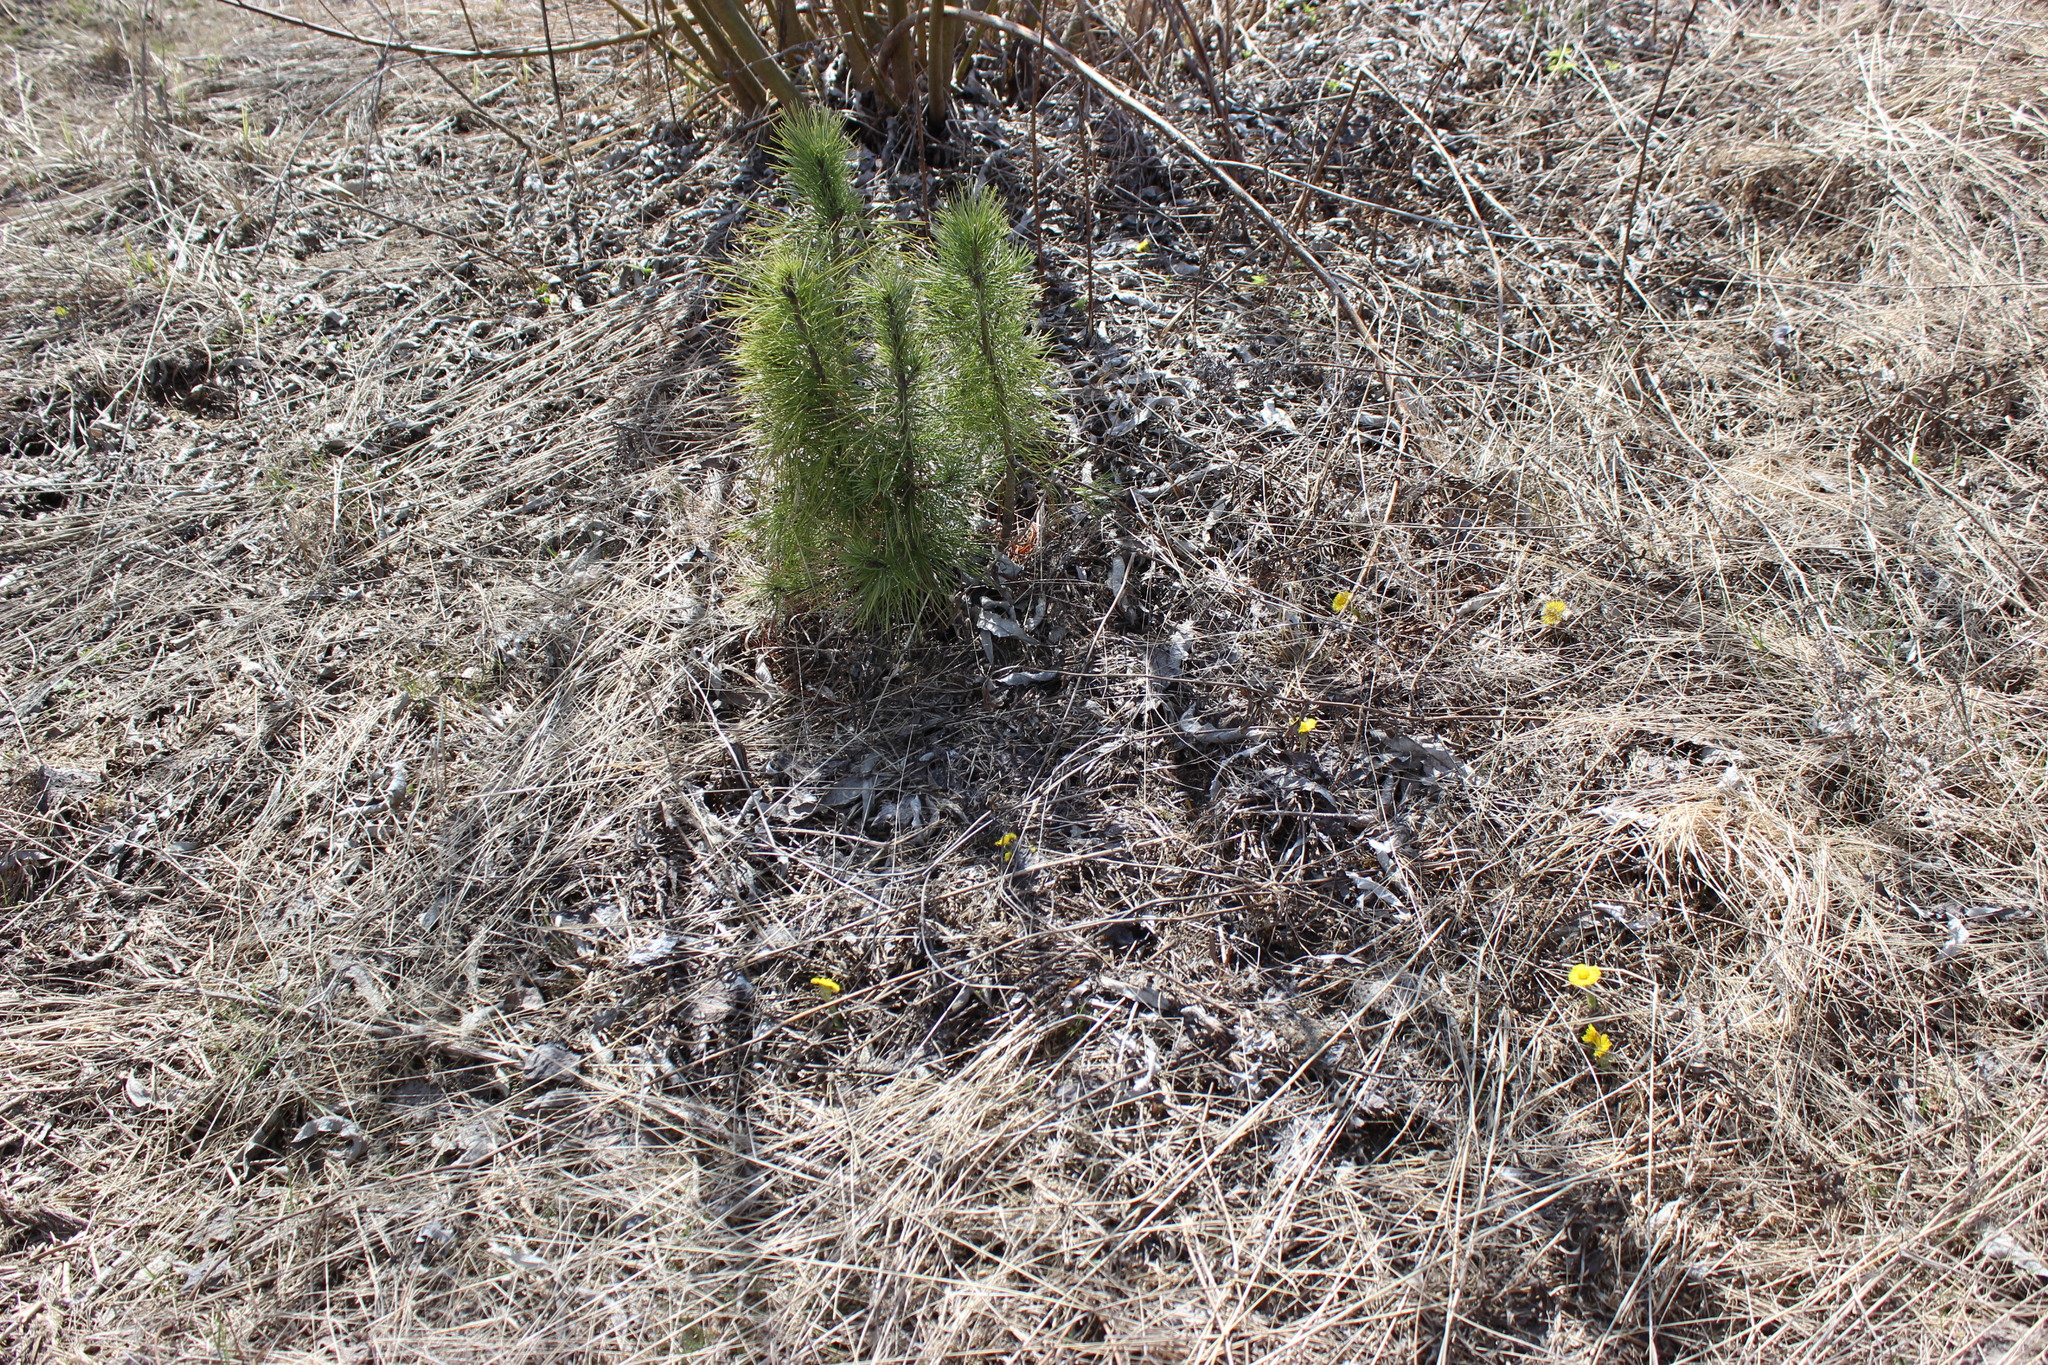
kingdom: Plantae
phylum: Tracheophyta
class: Magnoliopsida
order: Asterales
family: Asteraceae
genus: Tussilago
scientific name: Tussilago farfara
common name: Coltsfoot
